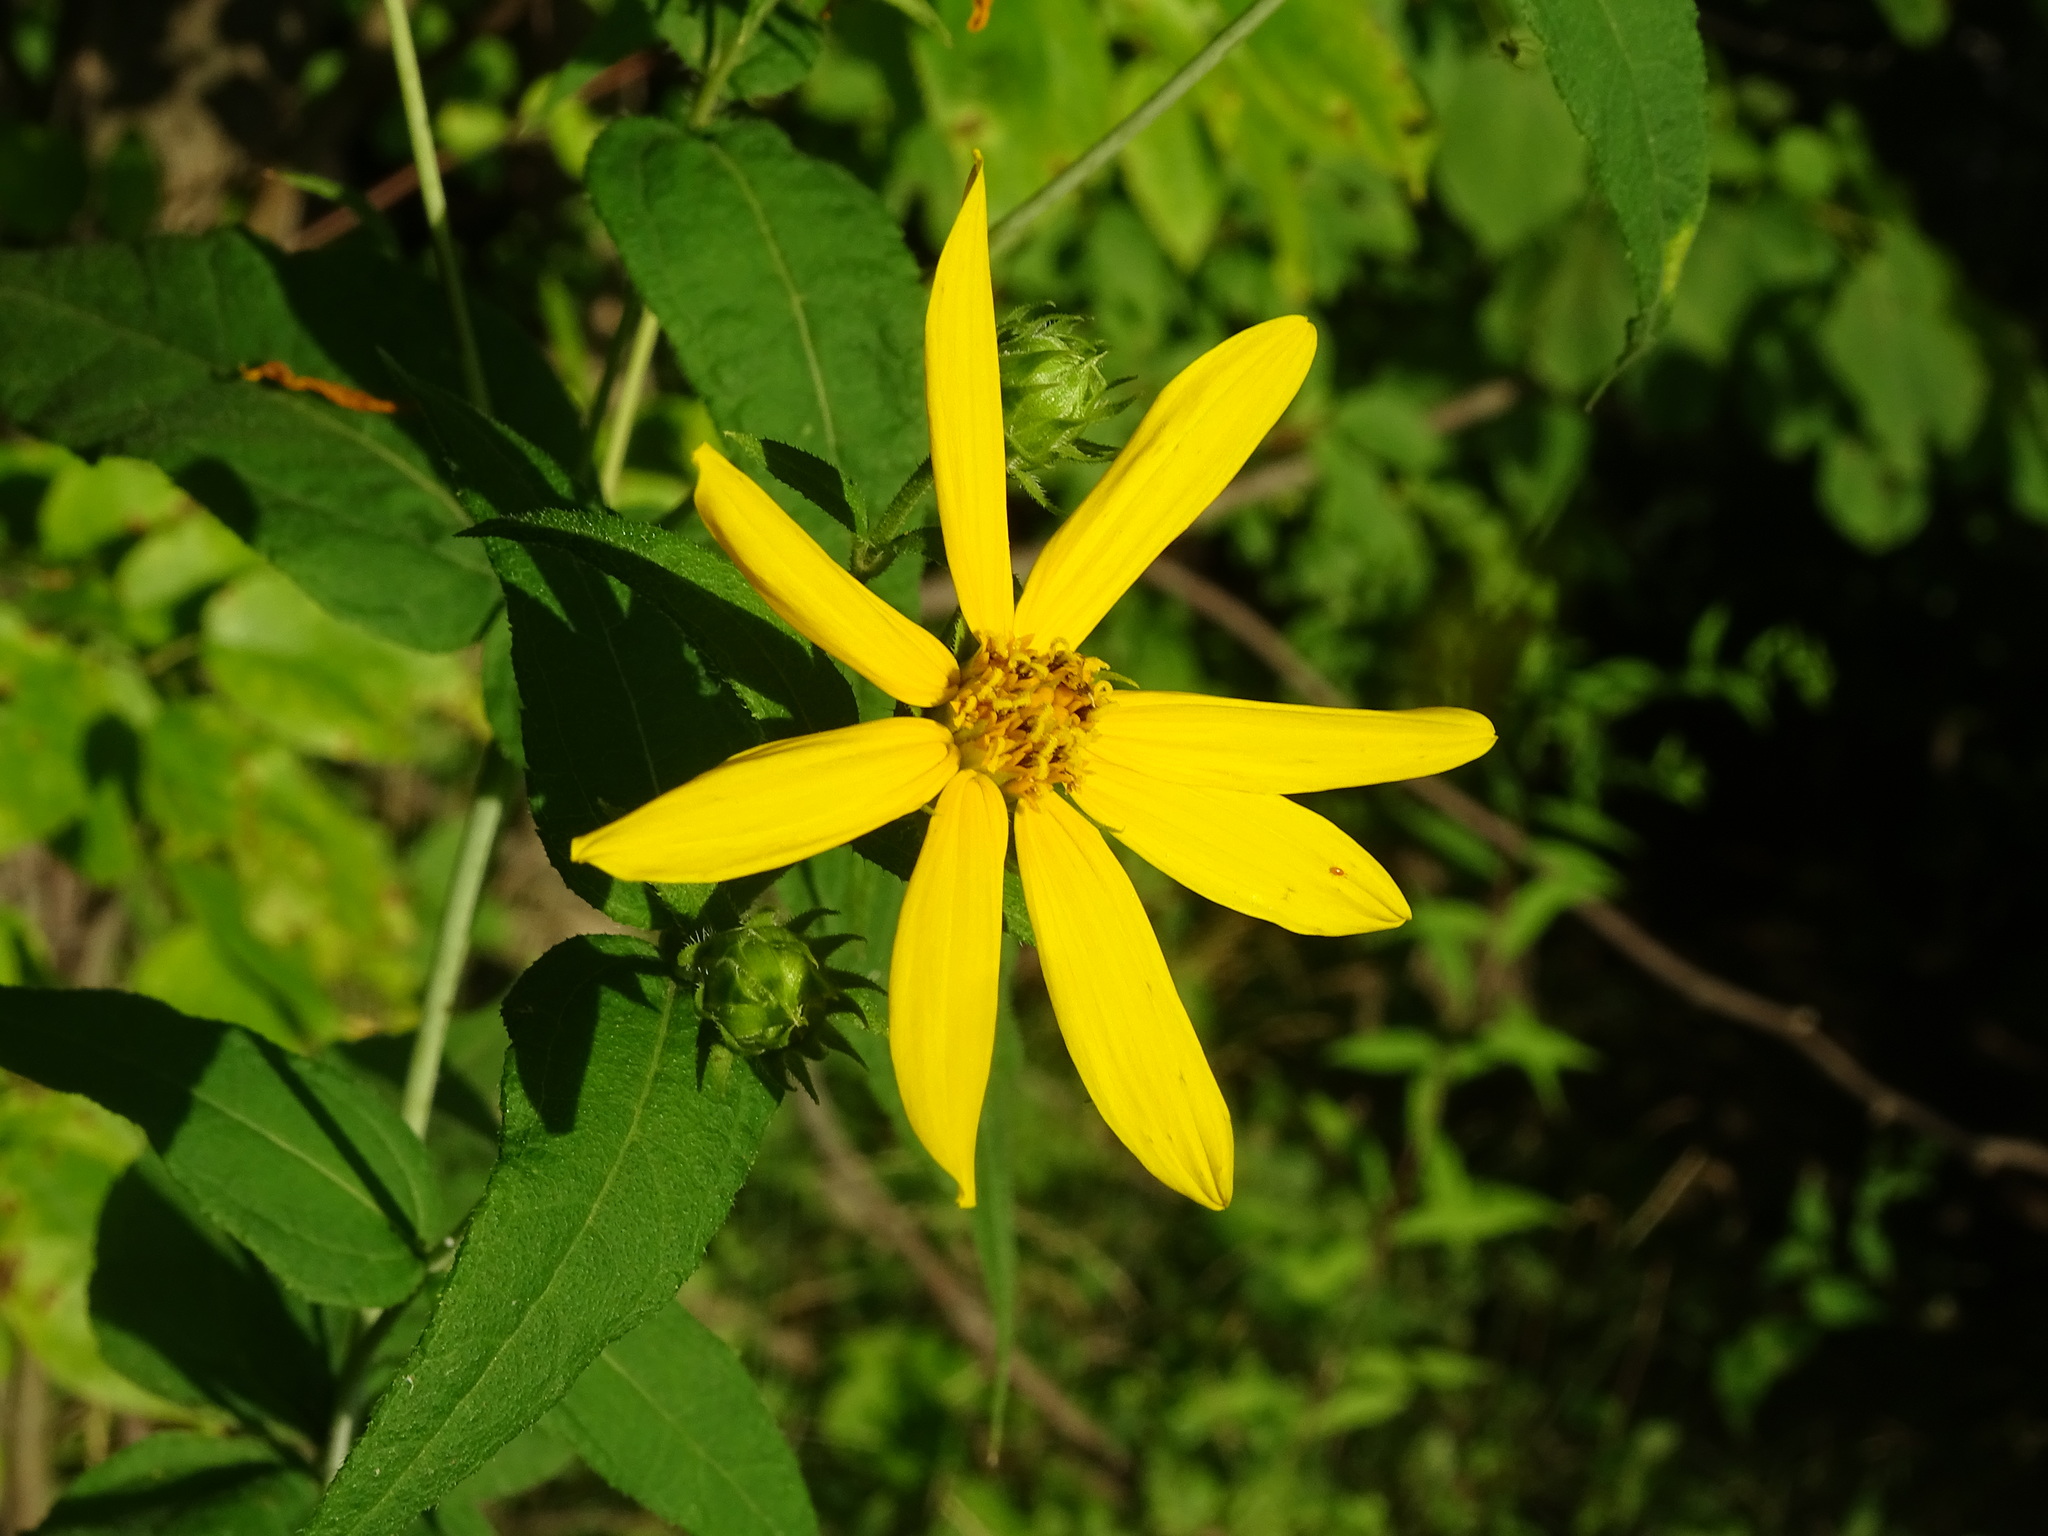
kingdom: Plantae
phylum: Tracheophyta
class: Magnoliopsida
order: Asterales
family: Asteraceae
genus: Helianthus
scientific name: Helianthus divaricatus
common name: Divergent sunflower
